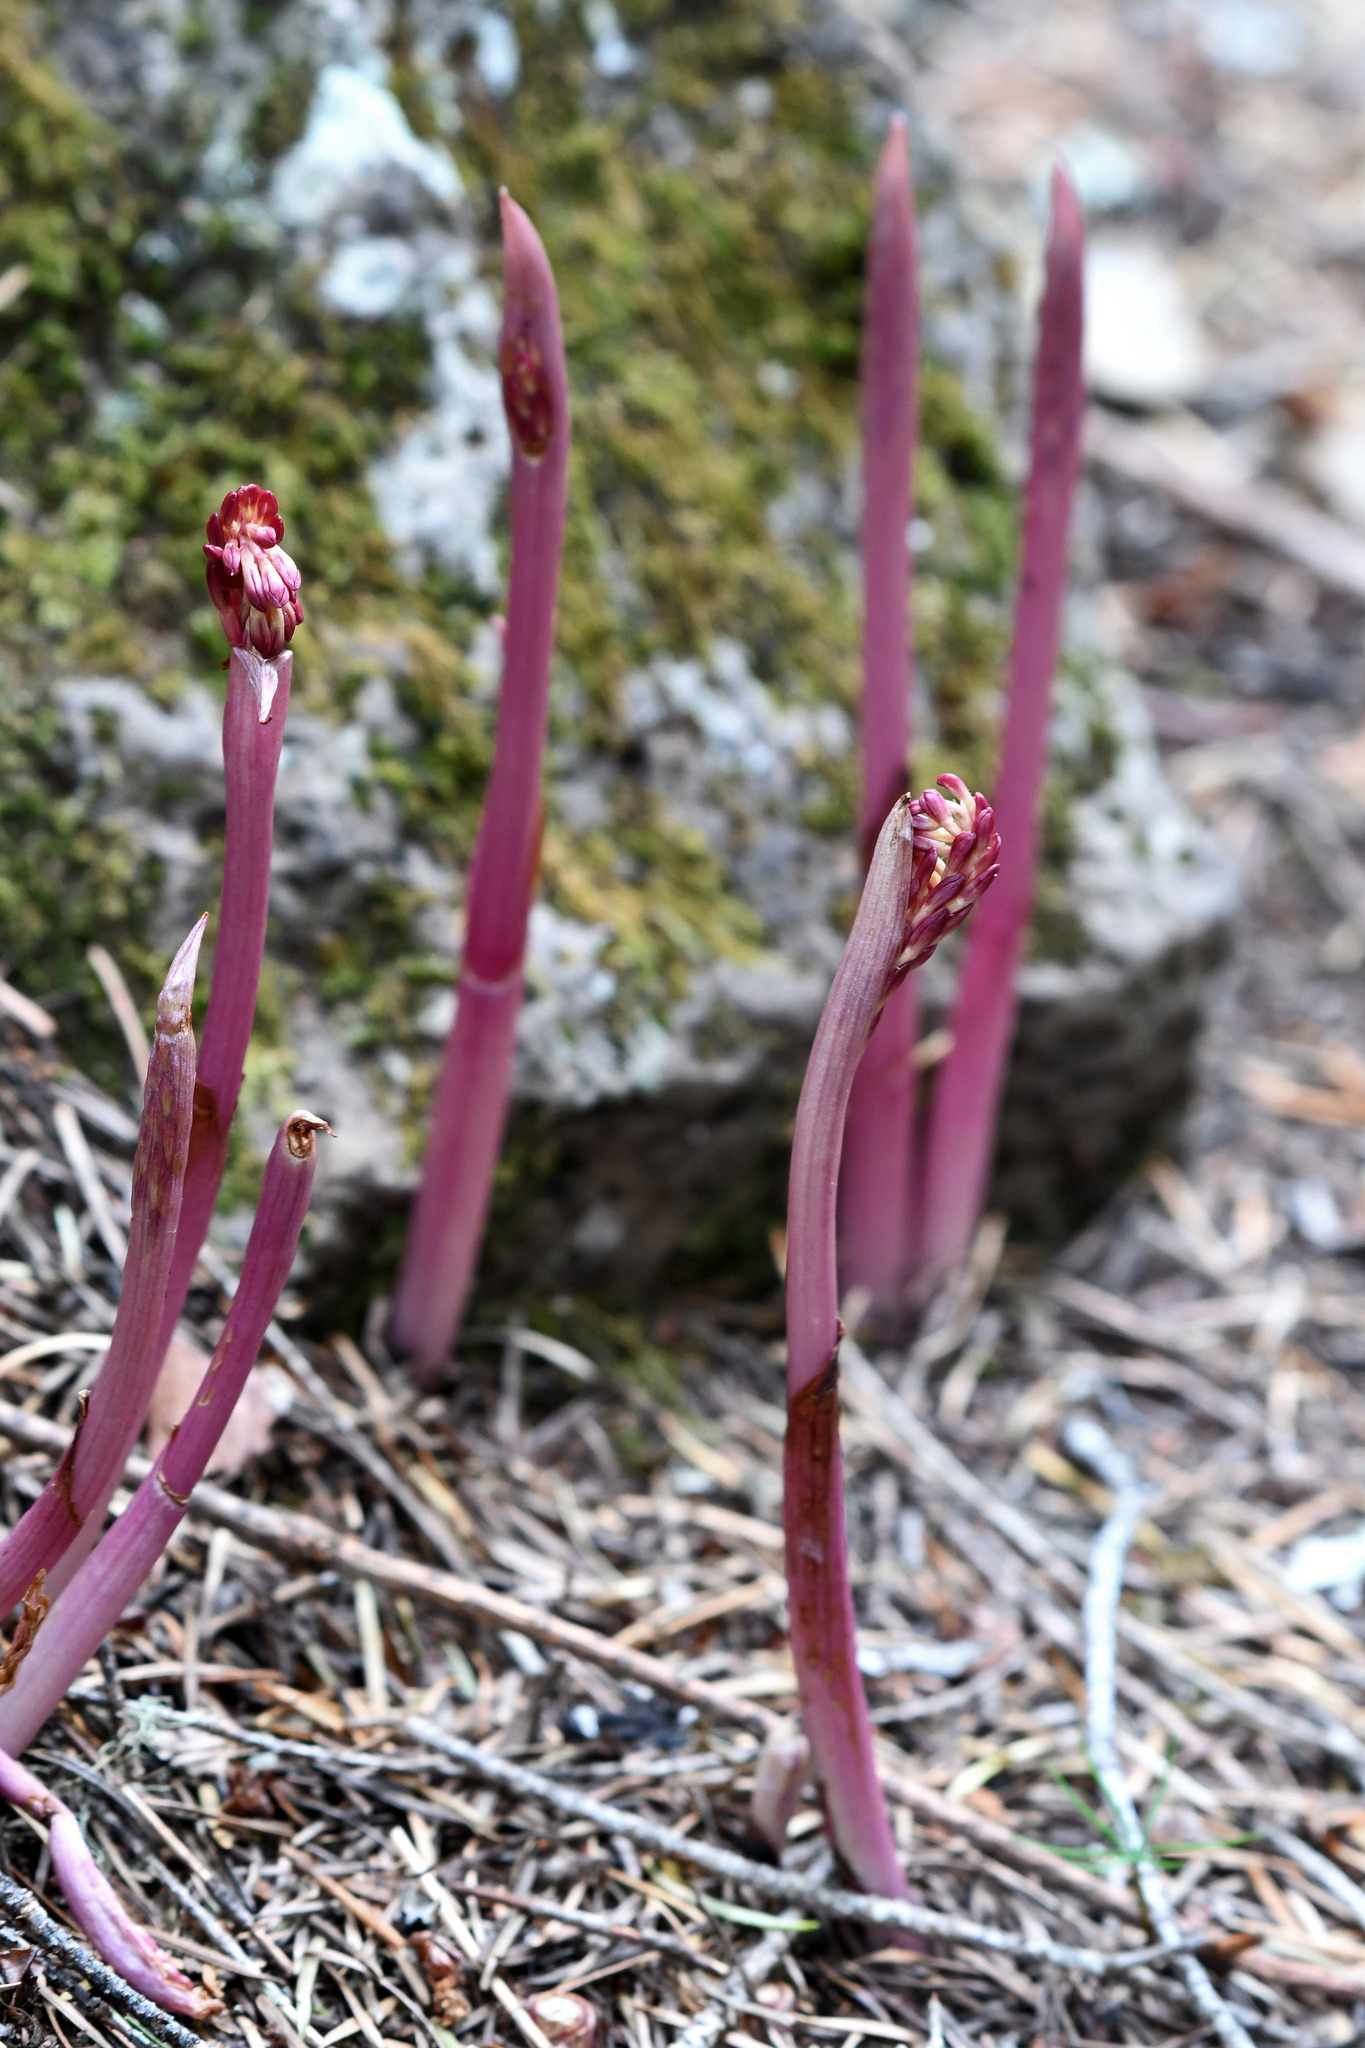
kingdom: Plantae
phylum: Tracheophyta
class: Liliopsida
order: Asparagales
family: Orchidaceae
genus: Corallorhiza
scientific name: Corallorhiza maculata
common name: Spotted coralroot
